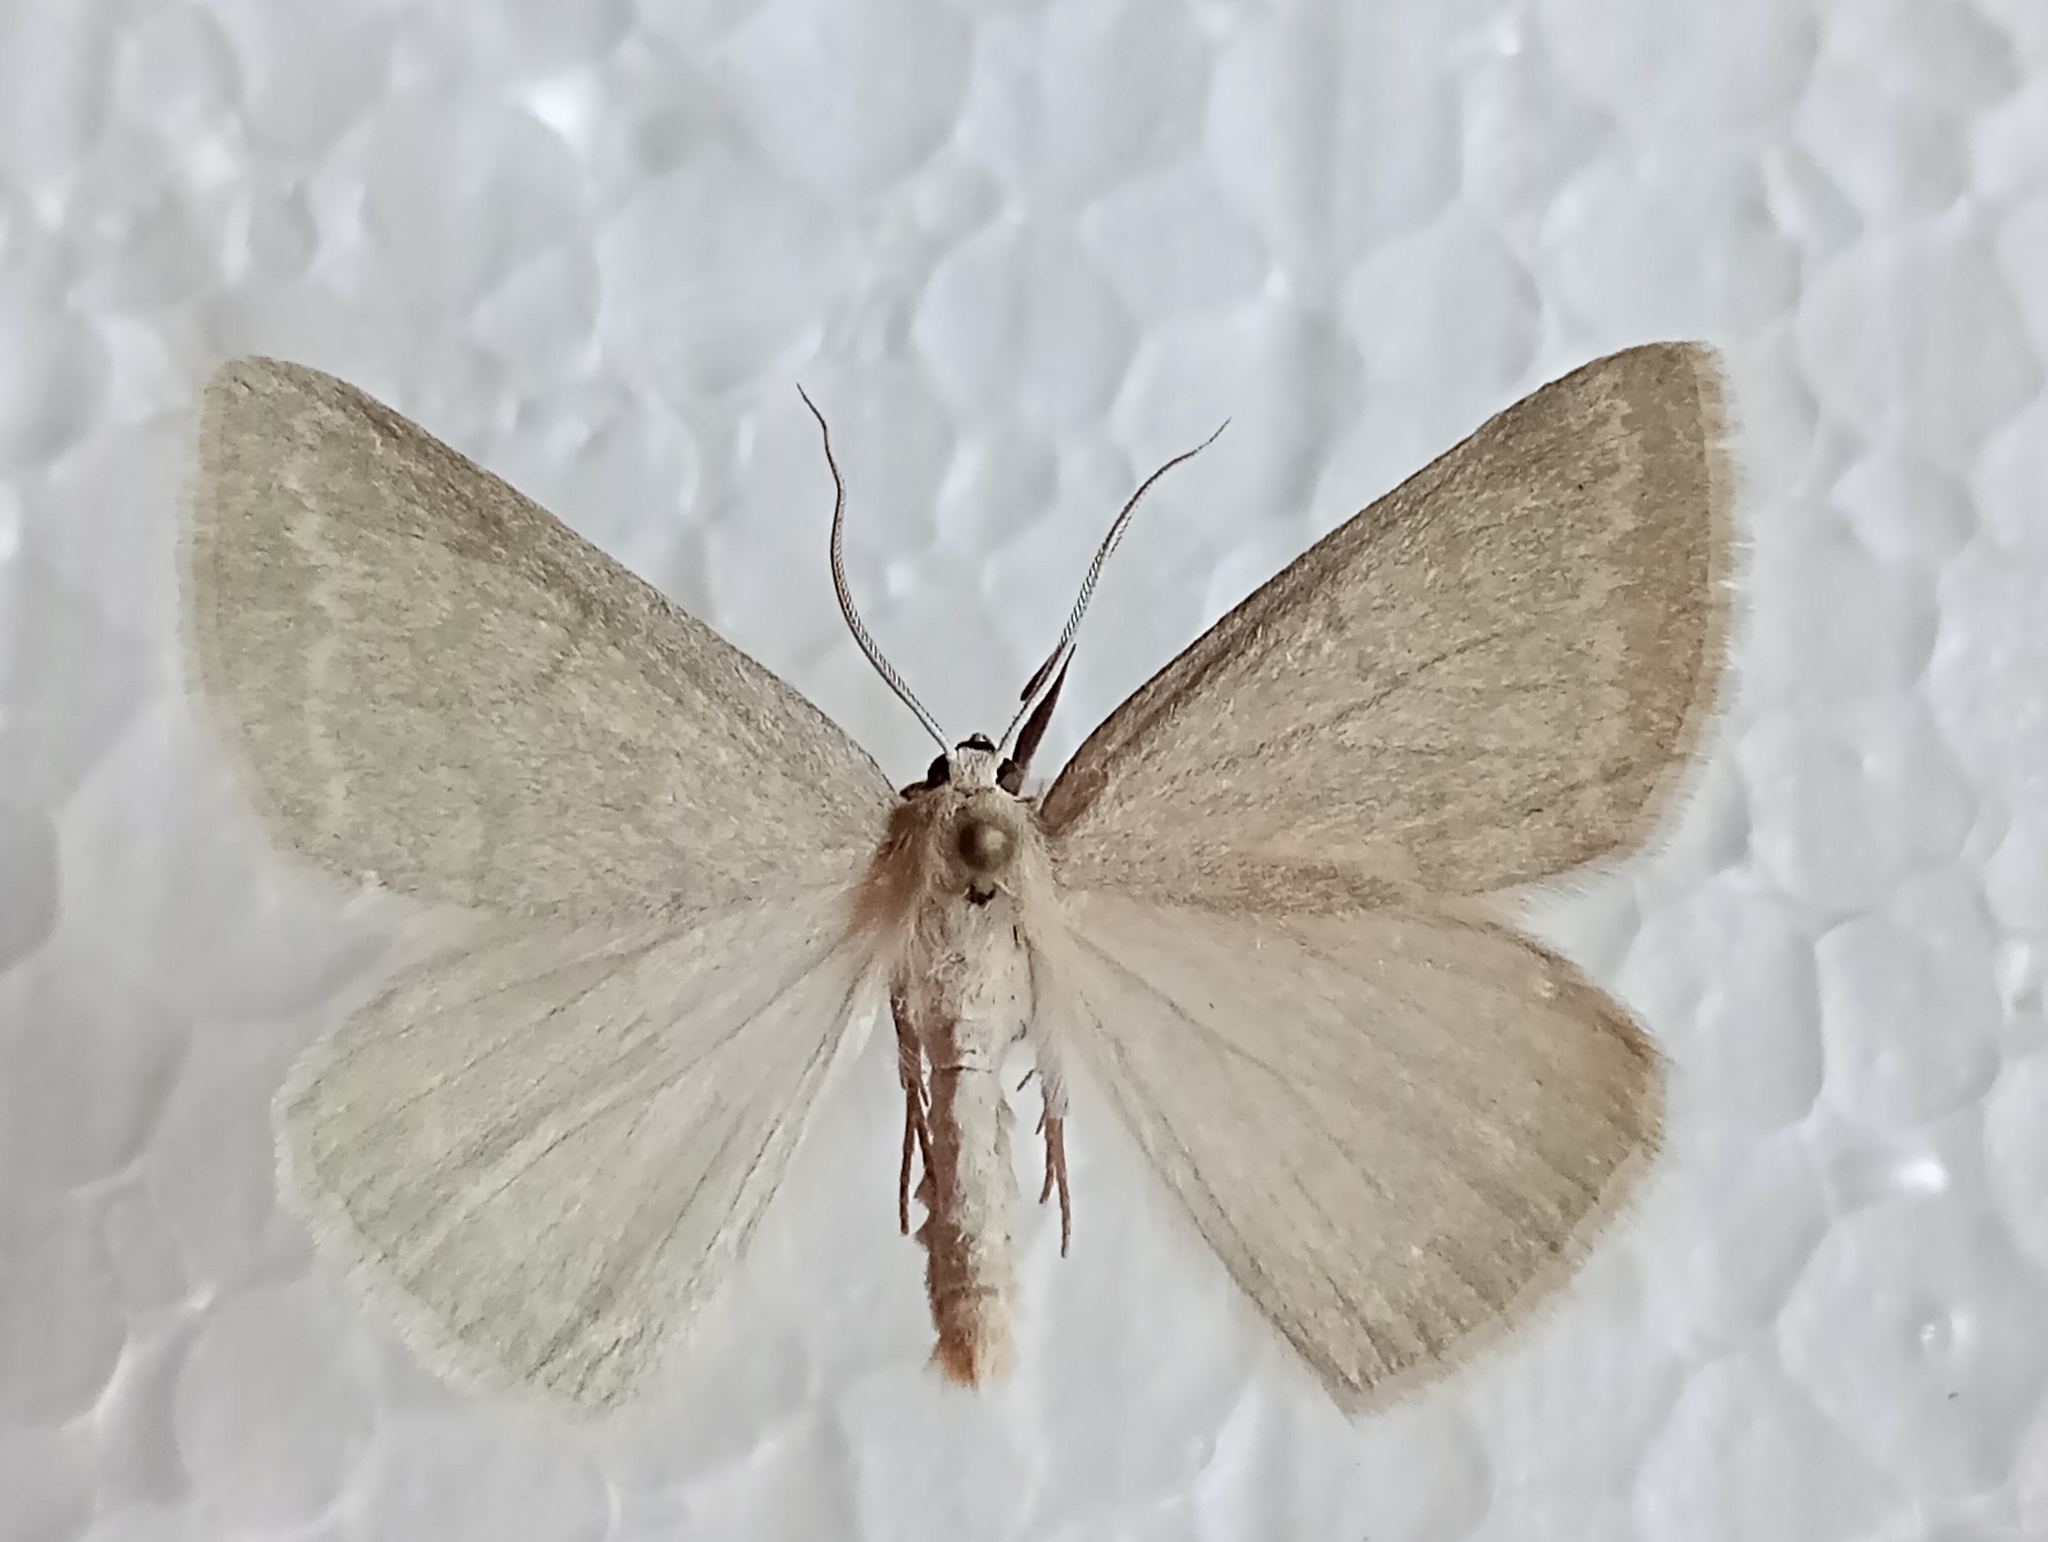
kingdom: Animalia
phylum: Arthropoda
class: Insecta
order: Lepidoptera
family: Geometridae
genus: Pseudoterpna
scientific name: Pseudoterpna pruinata
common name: Grass emerald
